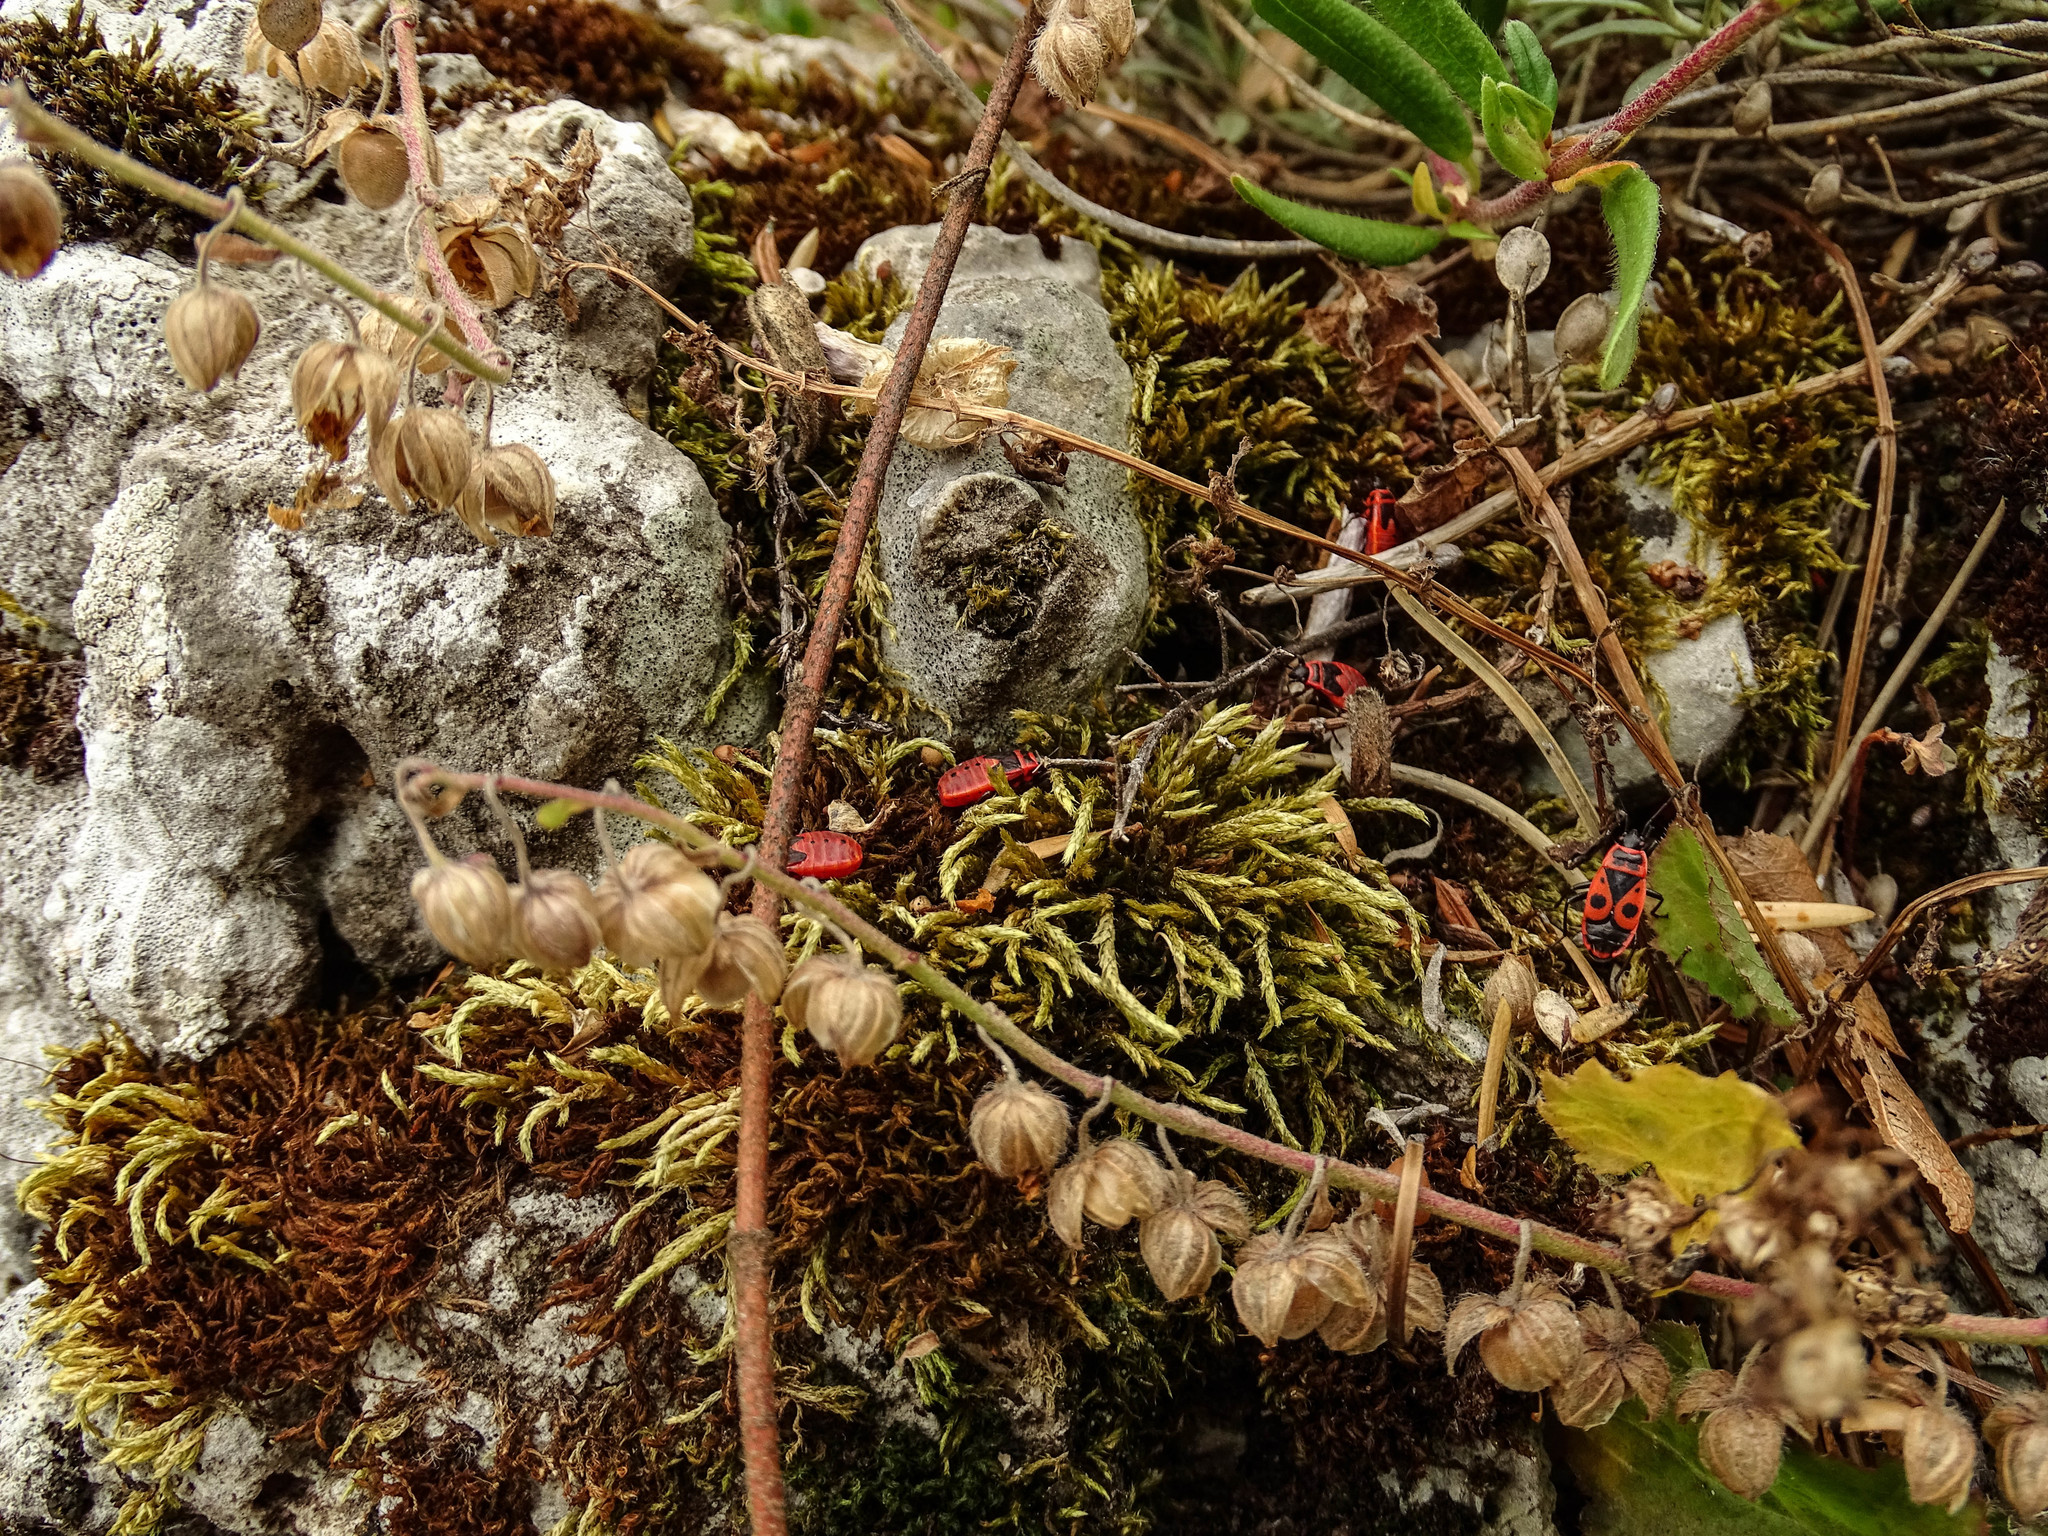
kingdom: Animalia
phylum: Arthropoda
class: Insecta
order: Hemiptera
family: Pyrrhocoridae
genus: Pyrrhocoris
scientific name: Pyrrhocoris apterus
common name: Firebug
